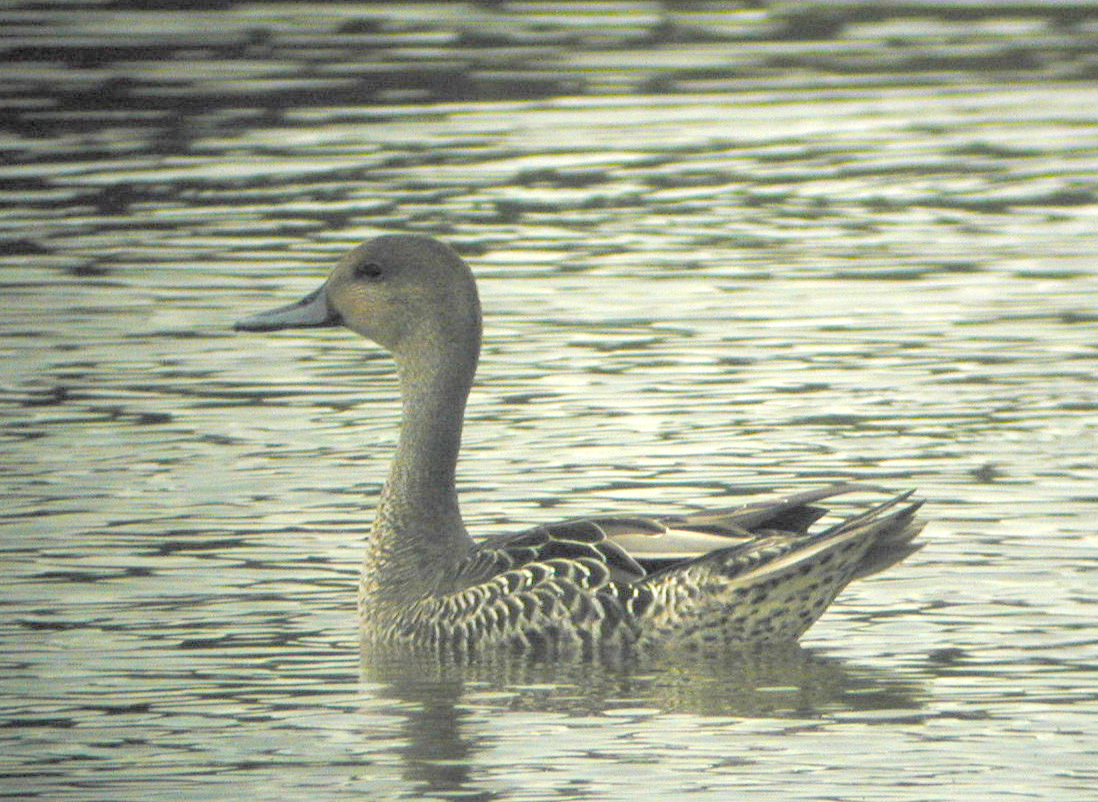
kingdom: Animalia
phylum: Chordata
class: Aves
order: Anseriformes
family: Anatidae
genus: Anas
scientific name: Anas acuta
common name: Northern pintail
